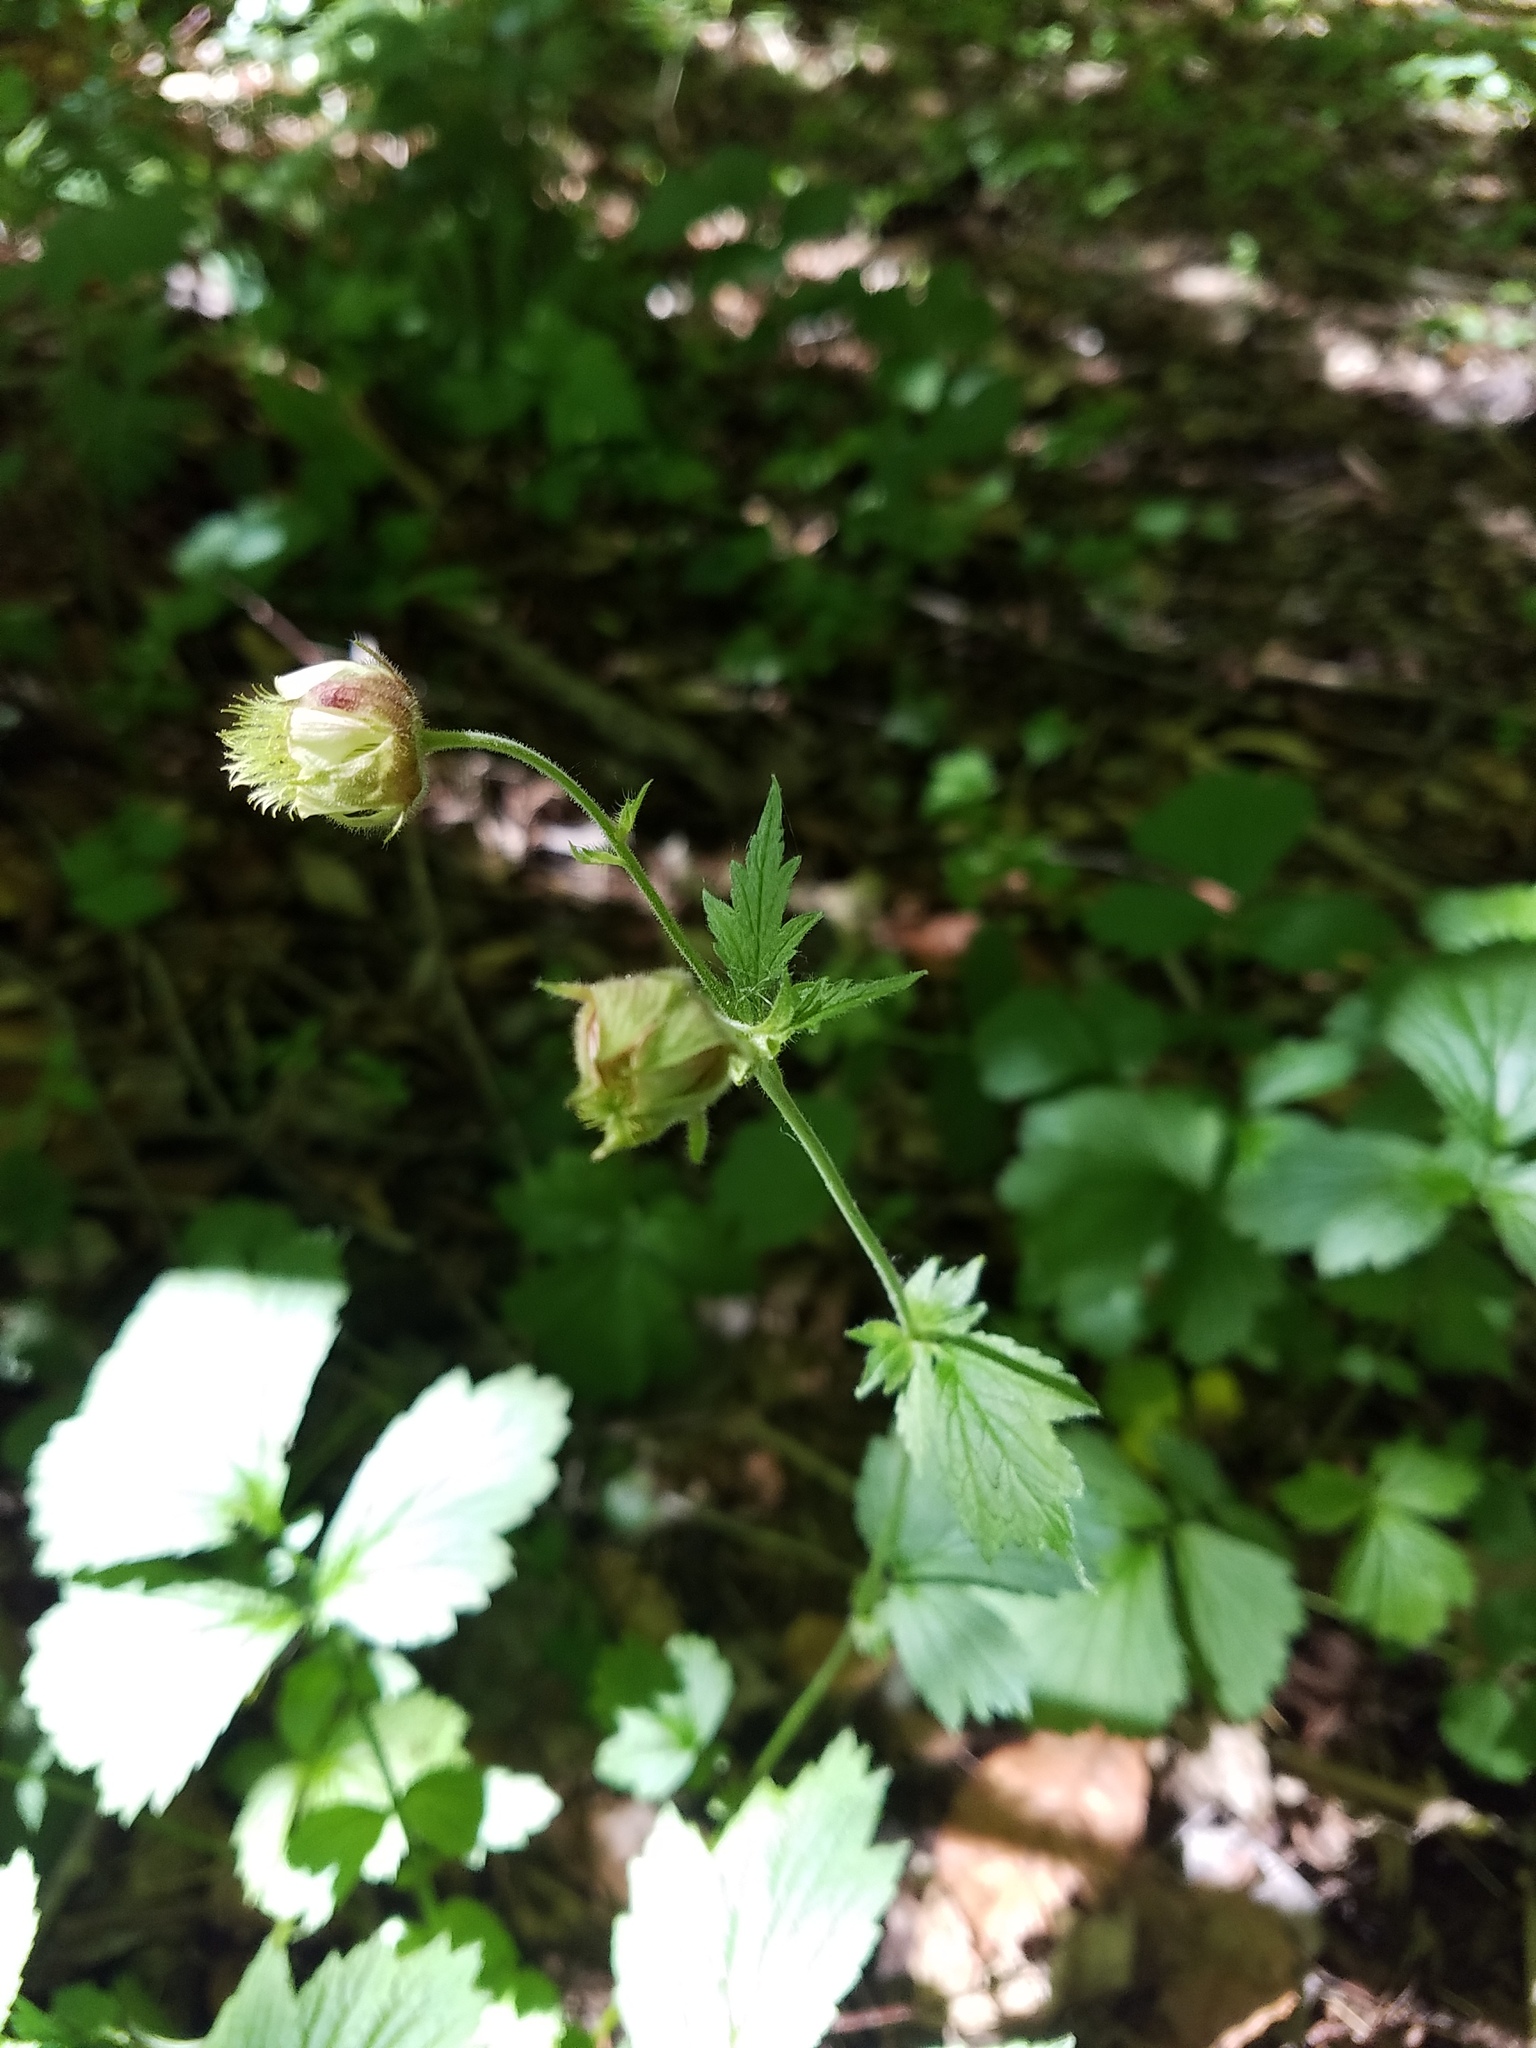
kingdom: Plantae
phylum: Tracheophyta
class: Magnoliopsida
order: Rosales
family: Rosaceae
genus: Geum
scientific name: Geum rivale
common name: Water avens
